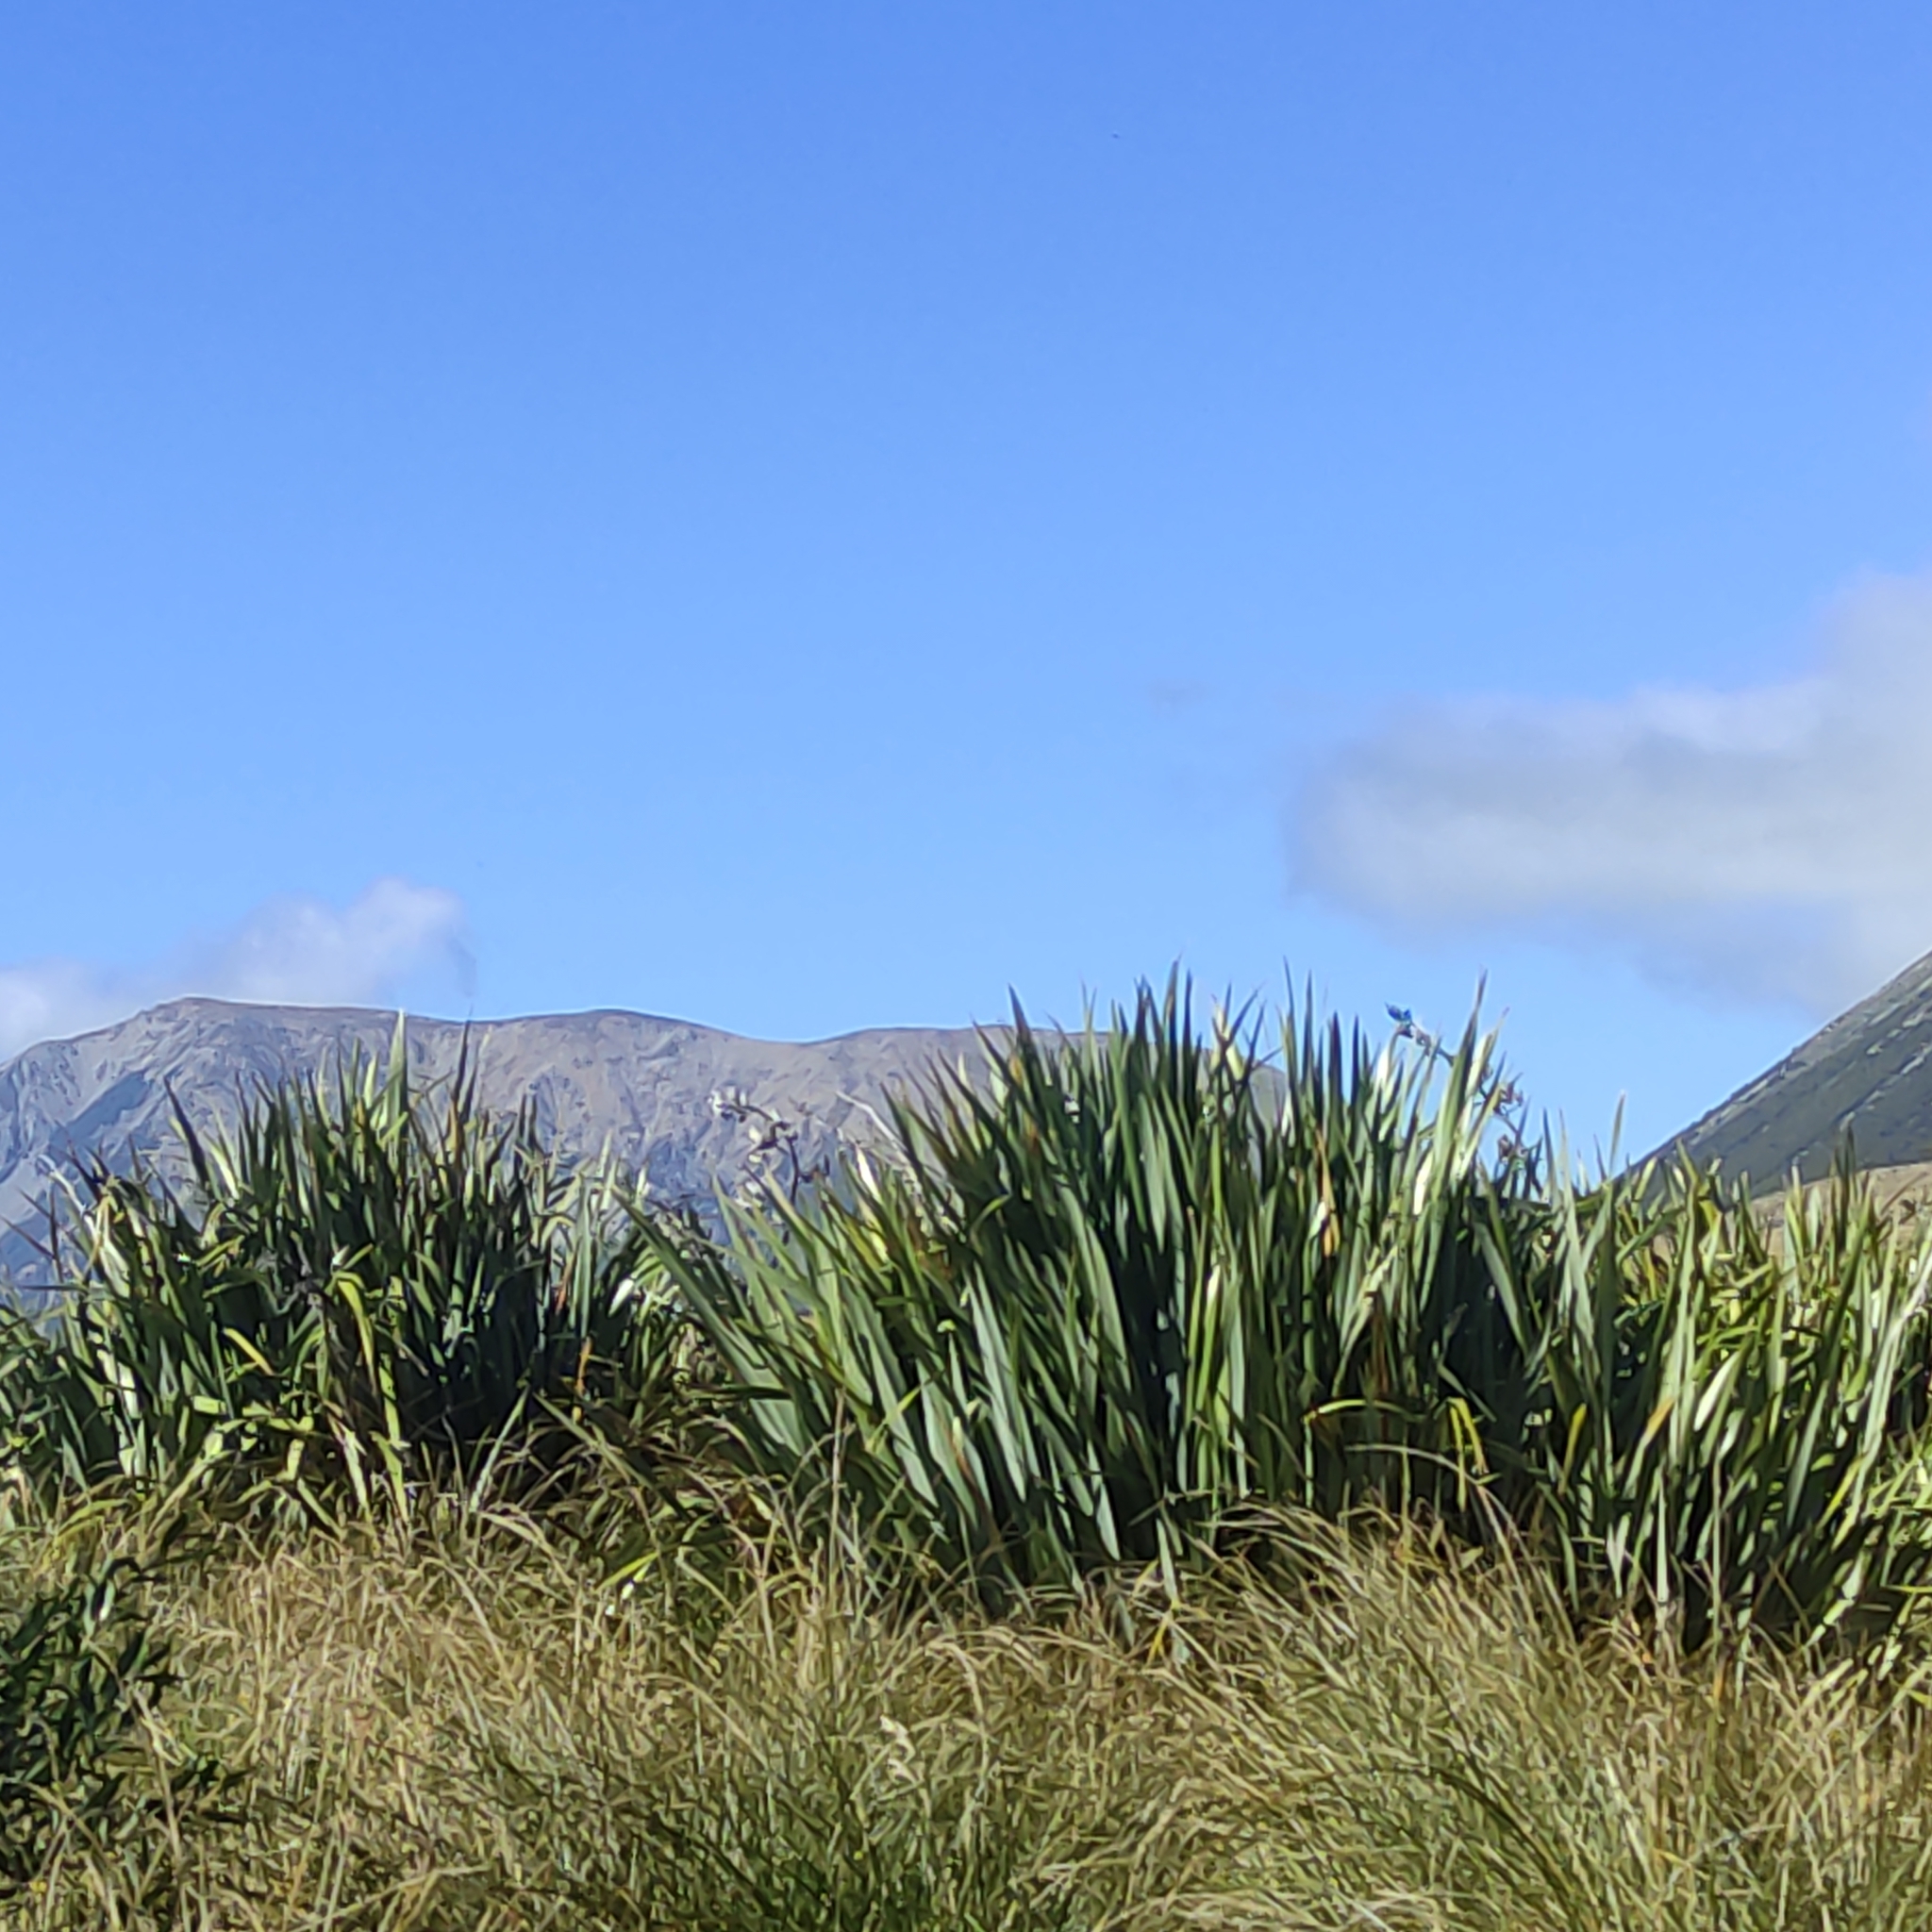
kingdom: Plantae
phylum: Tracheophyta
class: Liliopsida
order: Asparagales
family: Asphodelaceae
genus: Phormium
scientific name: Phormium tenax
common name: New zealand flax
